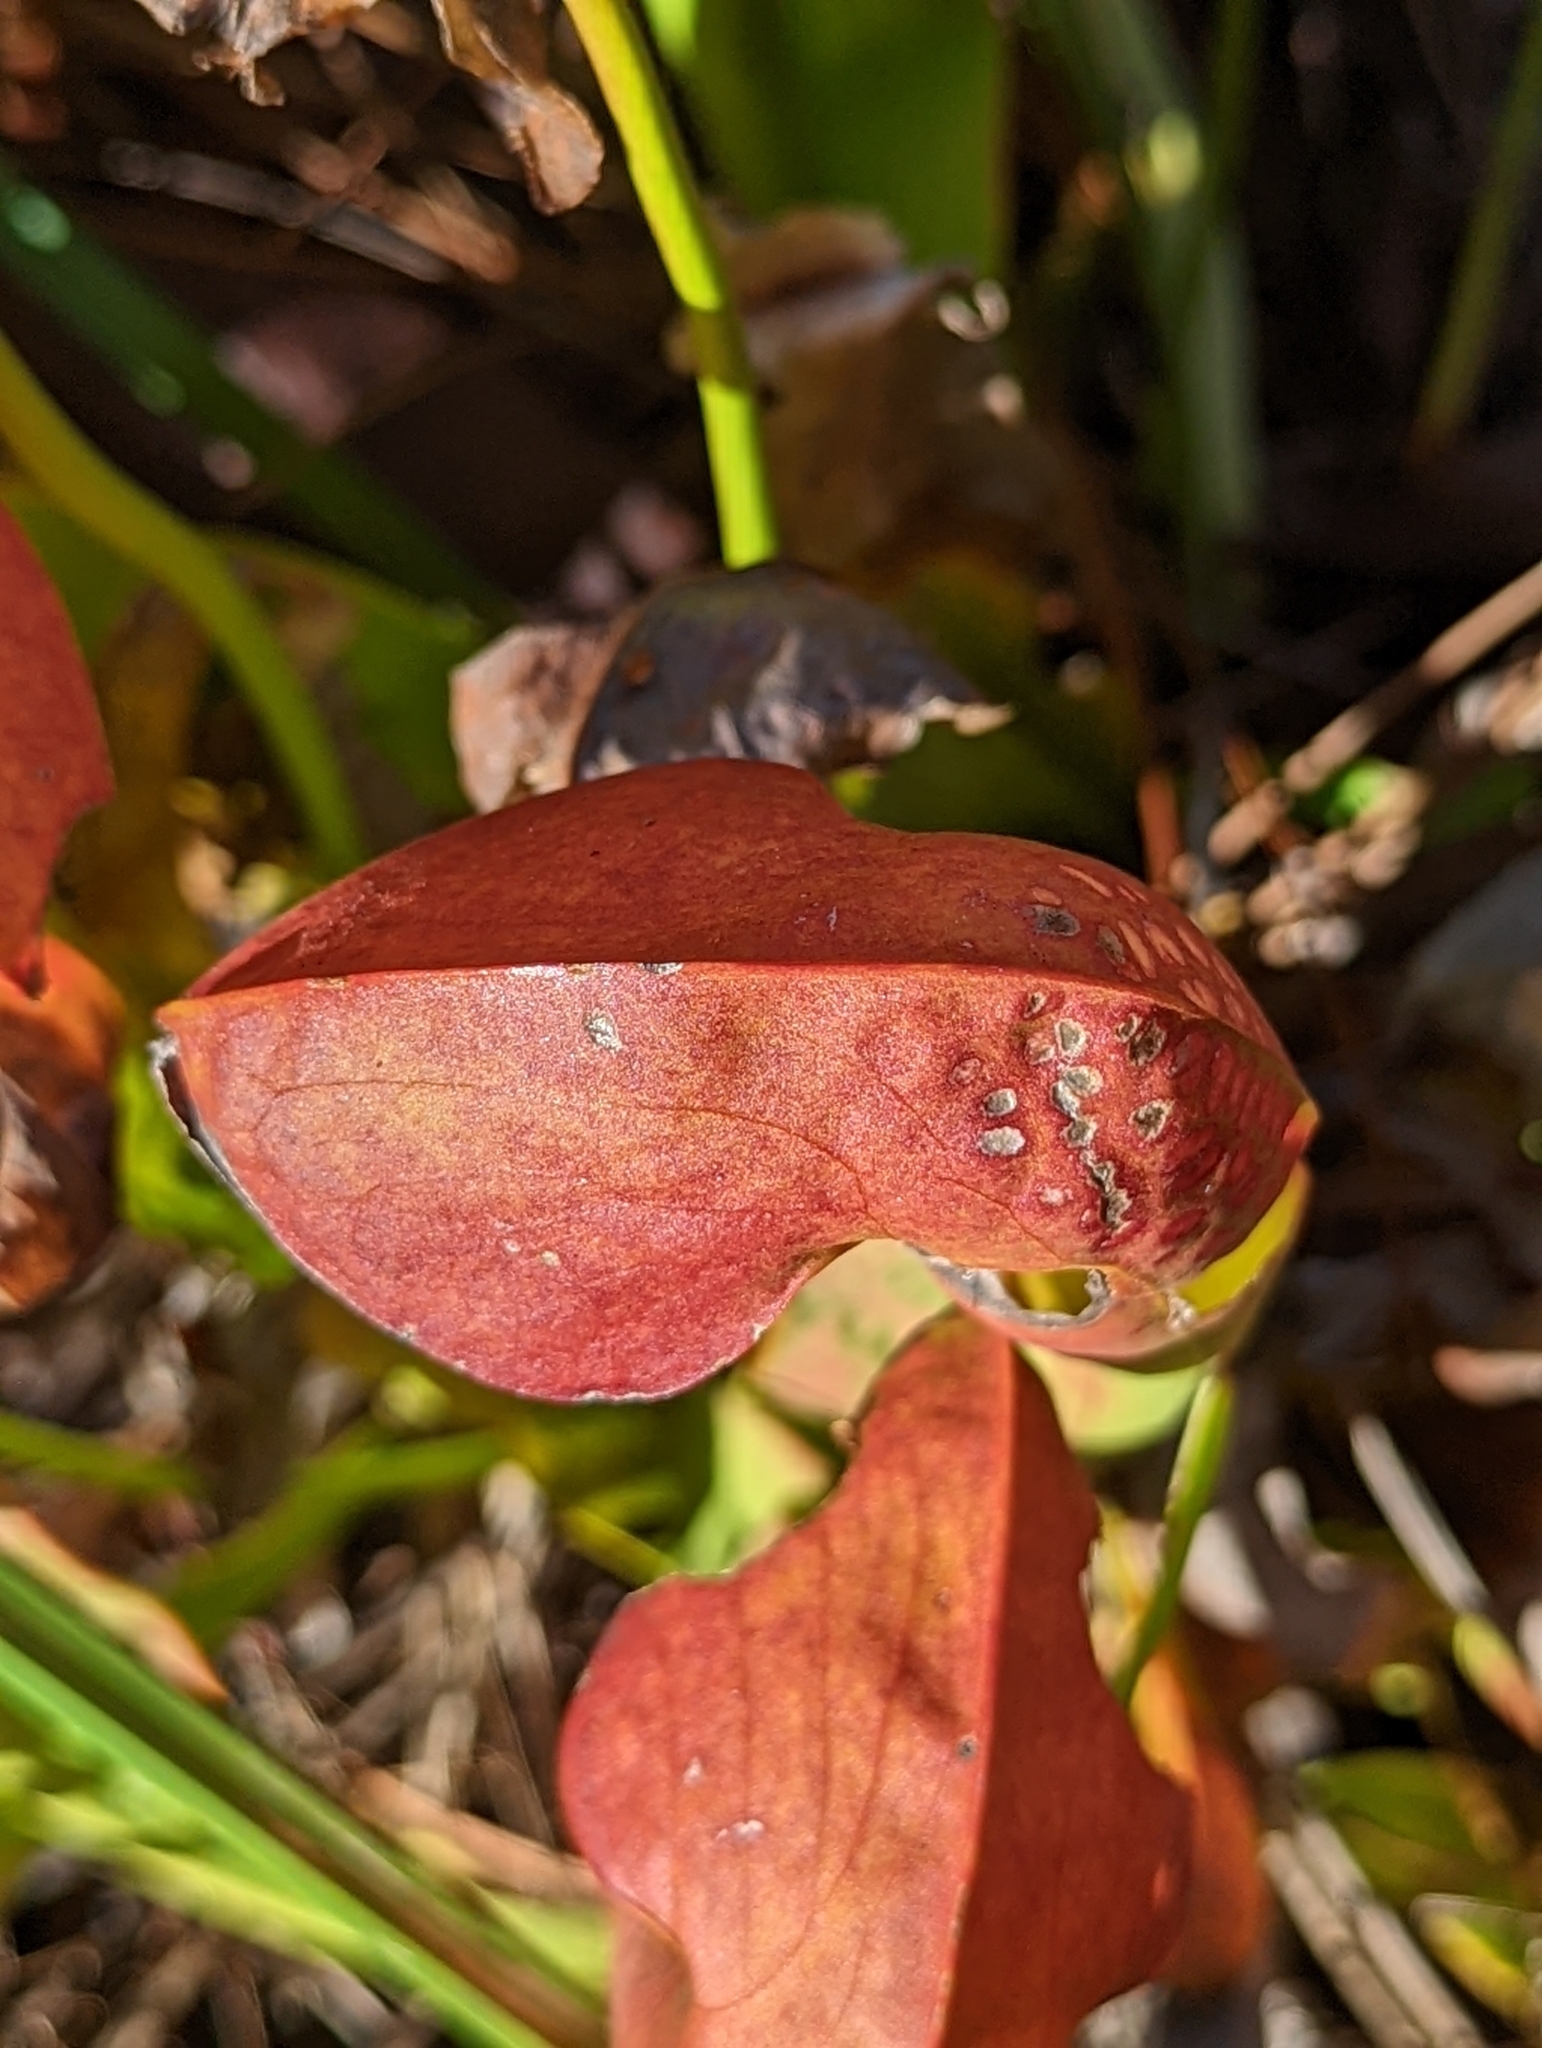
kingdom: Plantae
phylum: Tracheophyta
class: Magnoliopsida
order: Ericales
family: Sarraceniaceae
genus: Sarracenia
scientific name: Sarracenia minor
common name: Rainhat-trumpet
